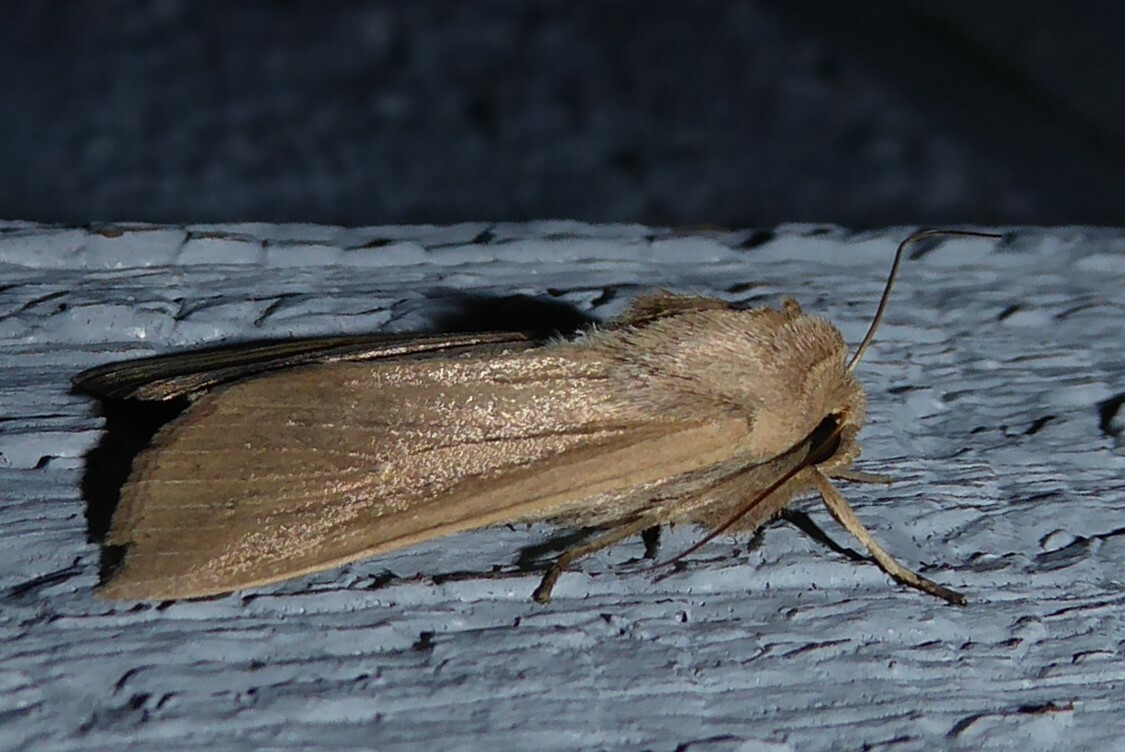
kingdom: Animalia
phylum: Arthropoda
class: Insecta
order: Lepidoptera
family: Noctuidae
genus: Mythimna
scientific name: Mythimna separata
